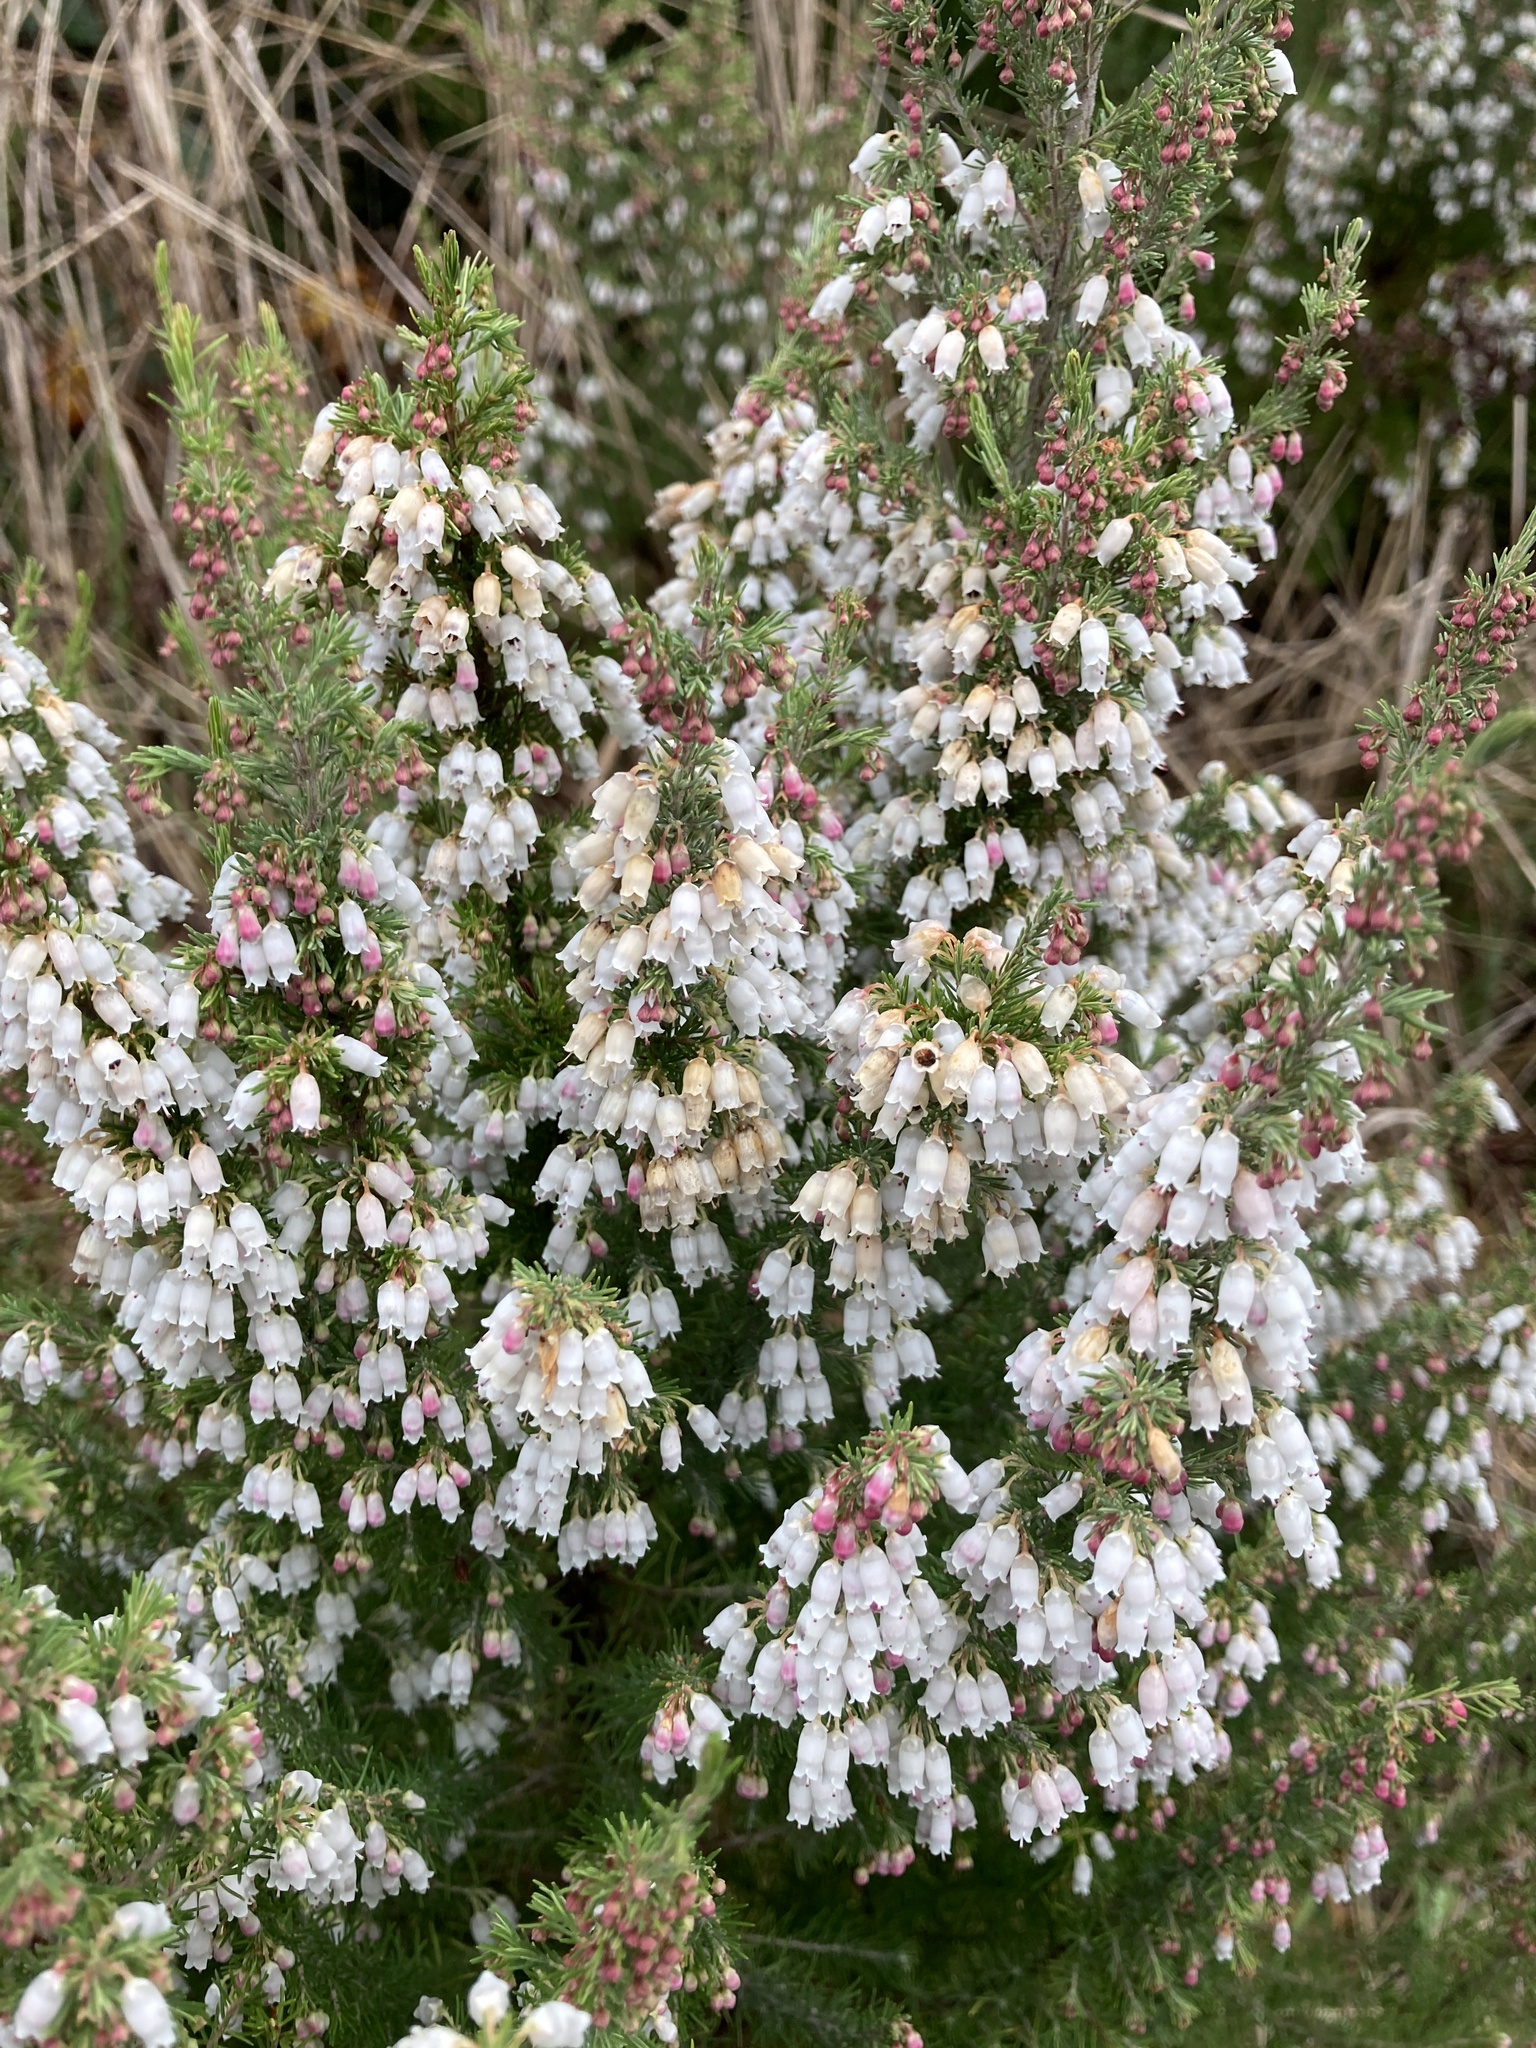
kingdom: Plantae
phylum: Tracheophyta
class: Magnoliopsida
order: Ericales
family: Ericaceae
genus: Erica
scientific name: Erica lusitanica
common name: Spanish heath
